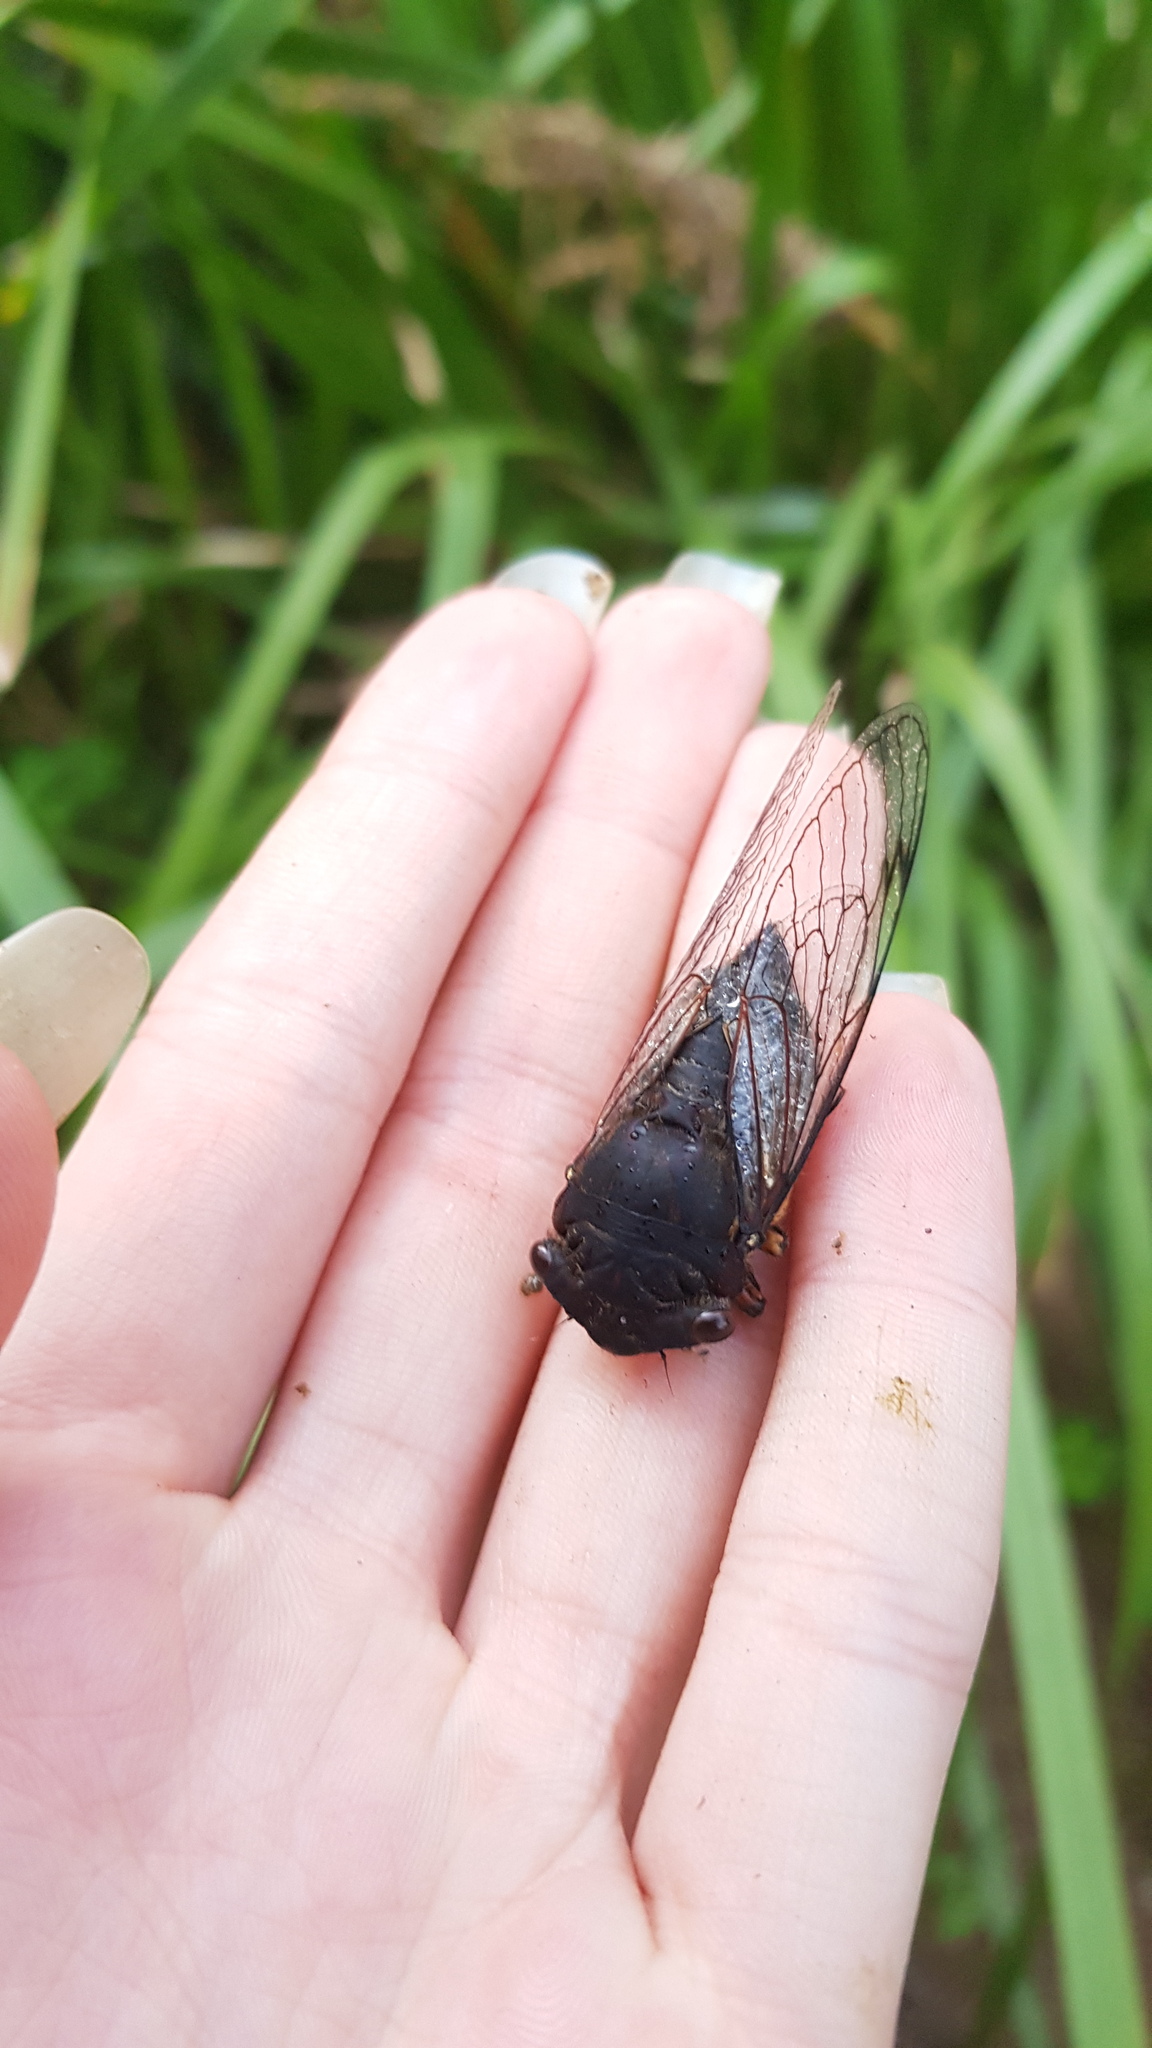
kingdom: Animalia
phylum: Arthropoda
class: Insecta
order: Hemiptera
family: Cicadidae
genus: Psaltoda
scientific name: Psaltoda plaga
